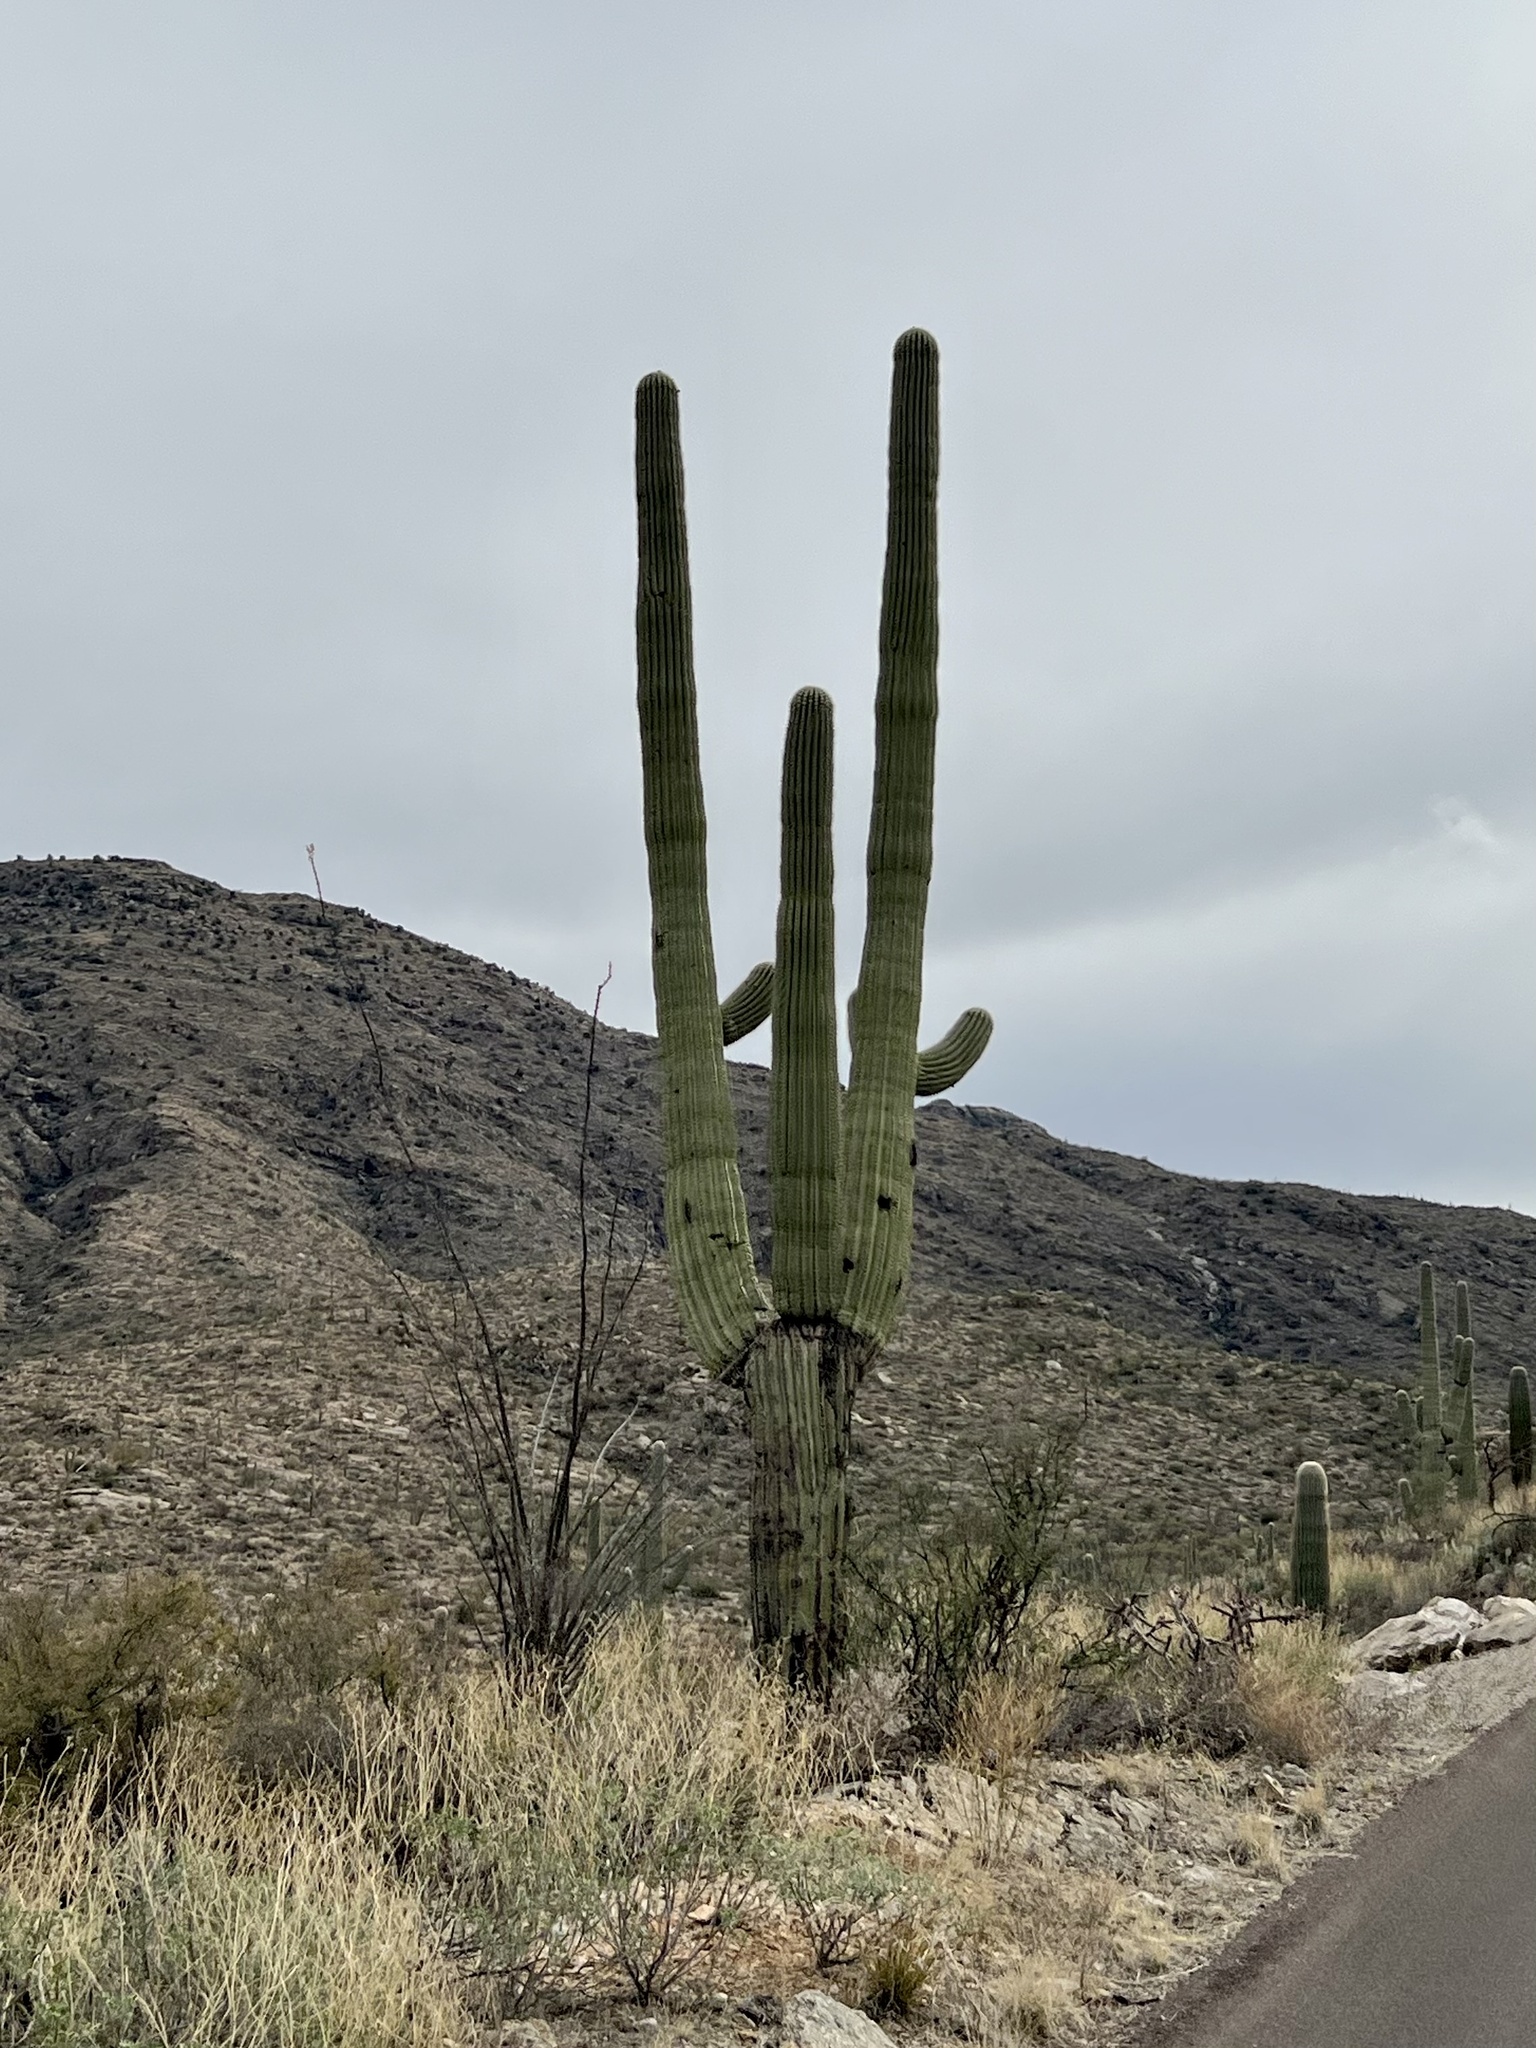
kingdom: Plantae
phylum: Tracheophyta
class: Magnoliopsida
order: Caryophyllales
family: Cactaceae
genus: Carnegiea
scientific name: Carnegiea gigantea
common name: Saguaro
